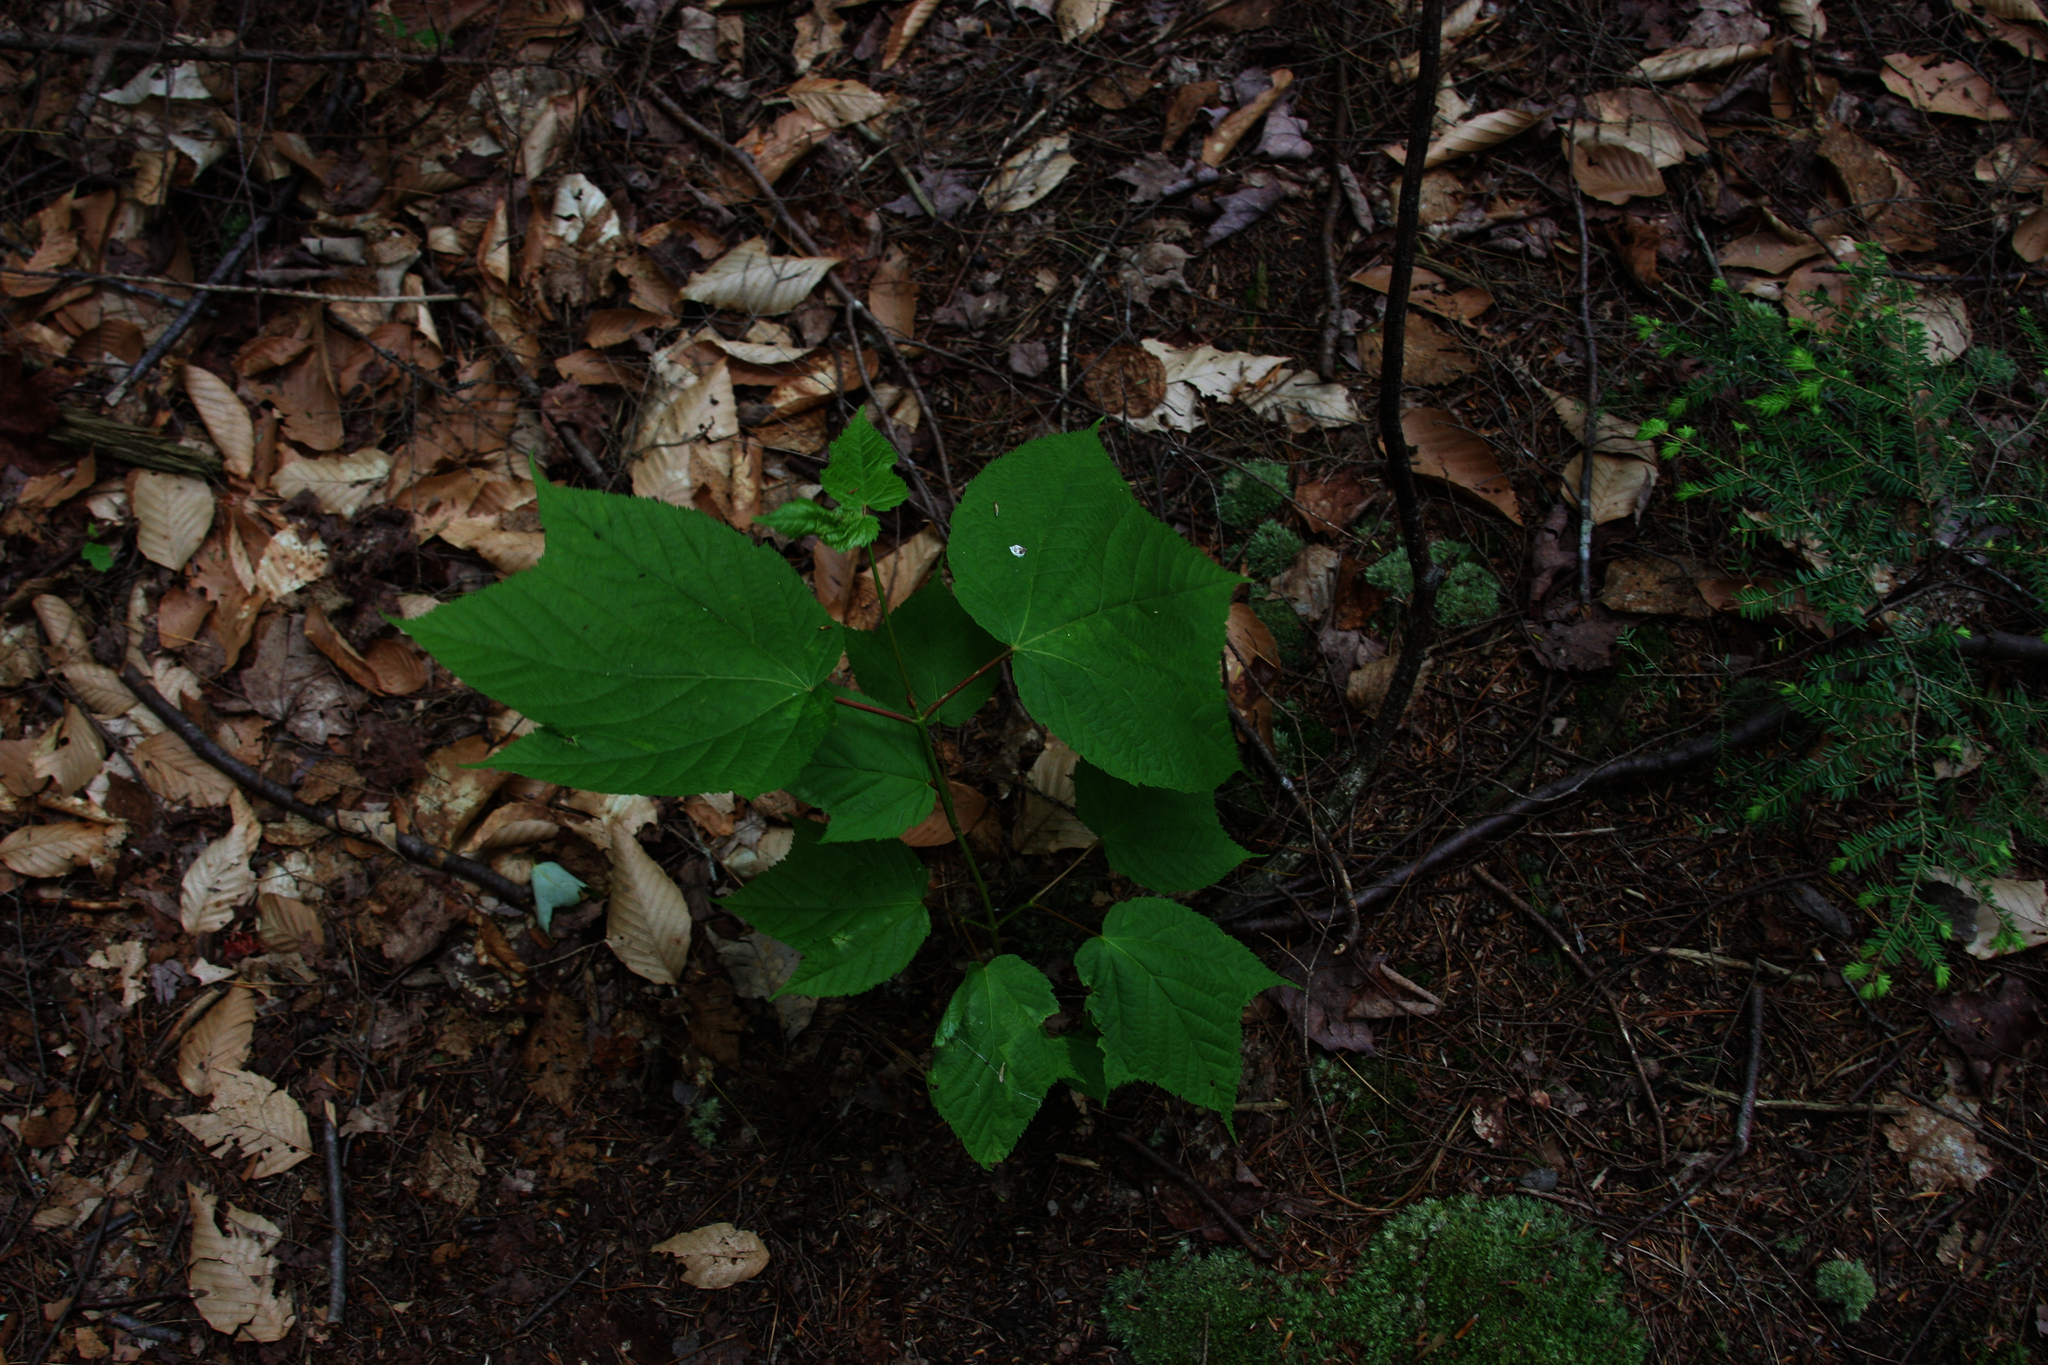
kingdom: Plantae
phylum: Tracheophyta
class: Pinopsida
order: Pinales
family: Pinaceae
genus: Tsuga
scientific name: Tsuga canadensis
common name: Eastern hemlock
